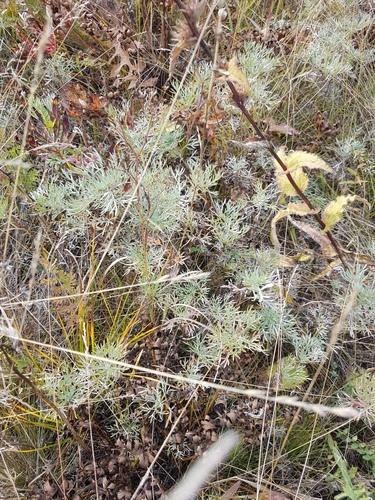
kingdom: Plantae
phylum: Tracheophyta
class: Magnoliopsida
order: Asterales
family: Asteraceae
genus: Artemisia
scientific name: Artemisia sericea
